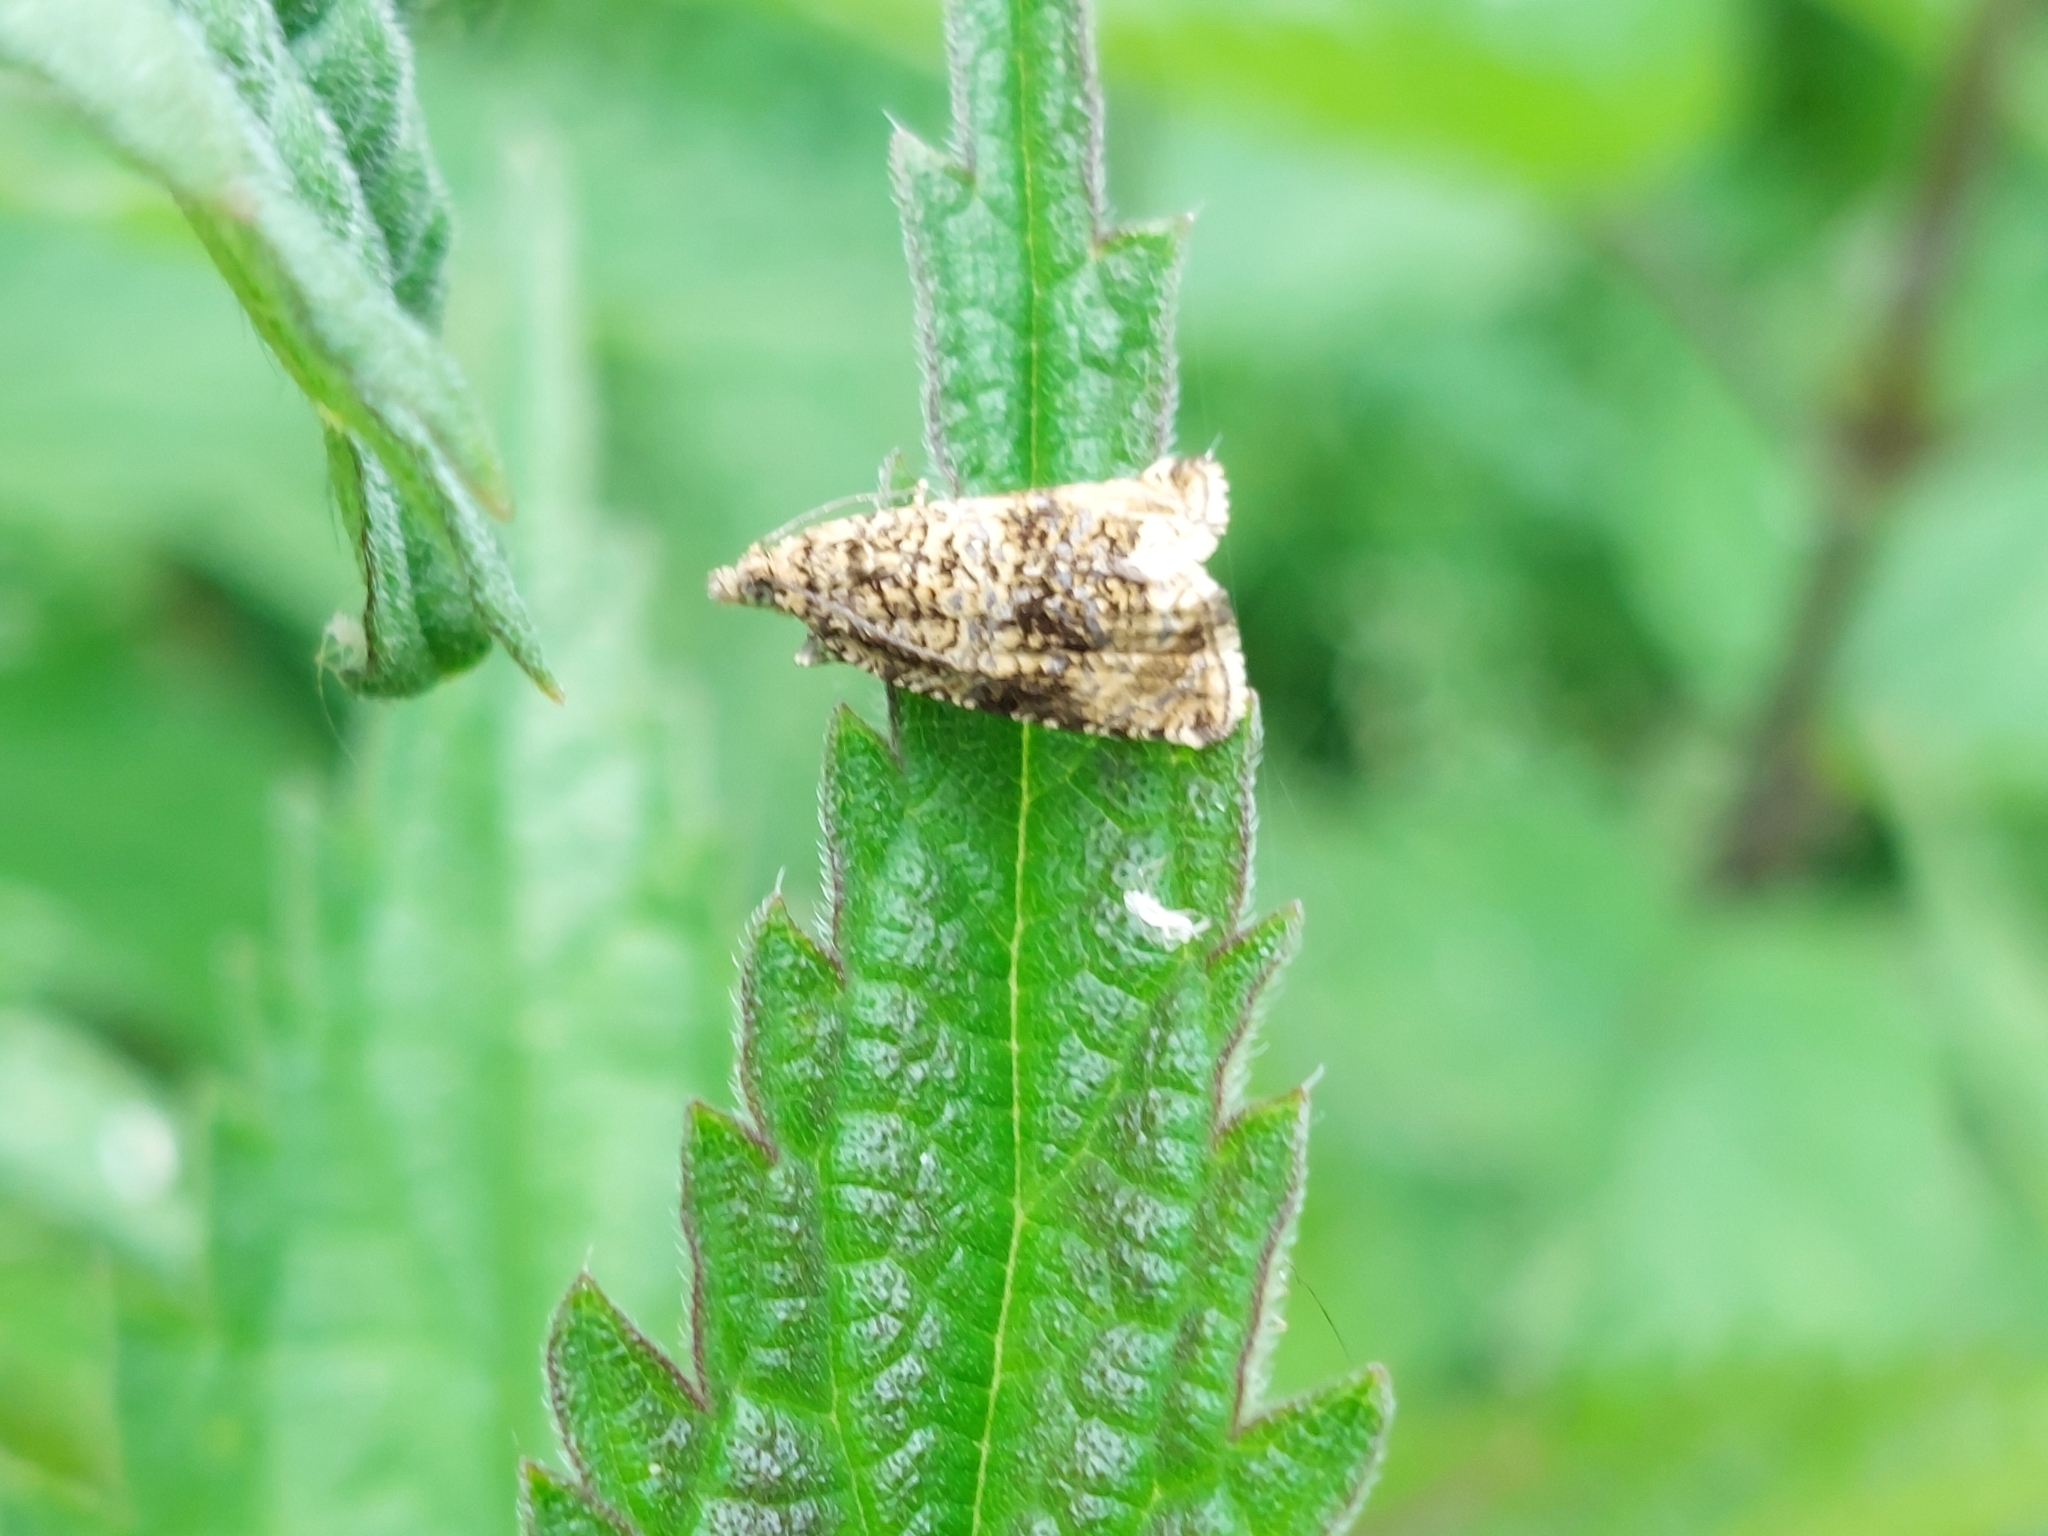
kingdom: Animalia
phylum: Arthropoda
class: Insecta
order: Lepidoptera
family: Tortricidae
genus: Syricoris
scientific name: Syricoris lacunana
